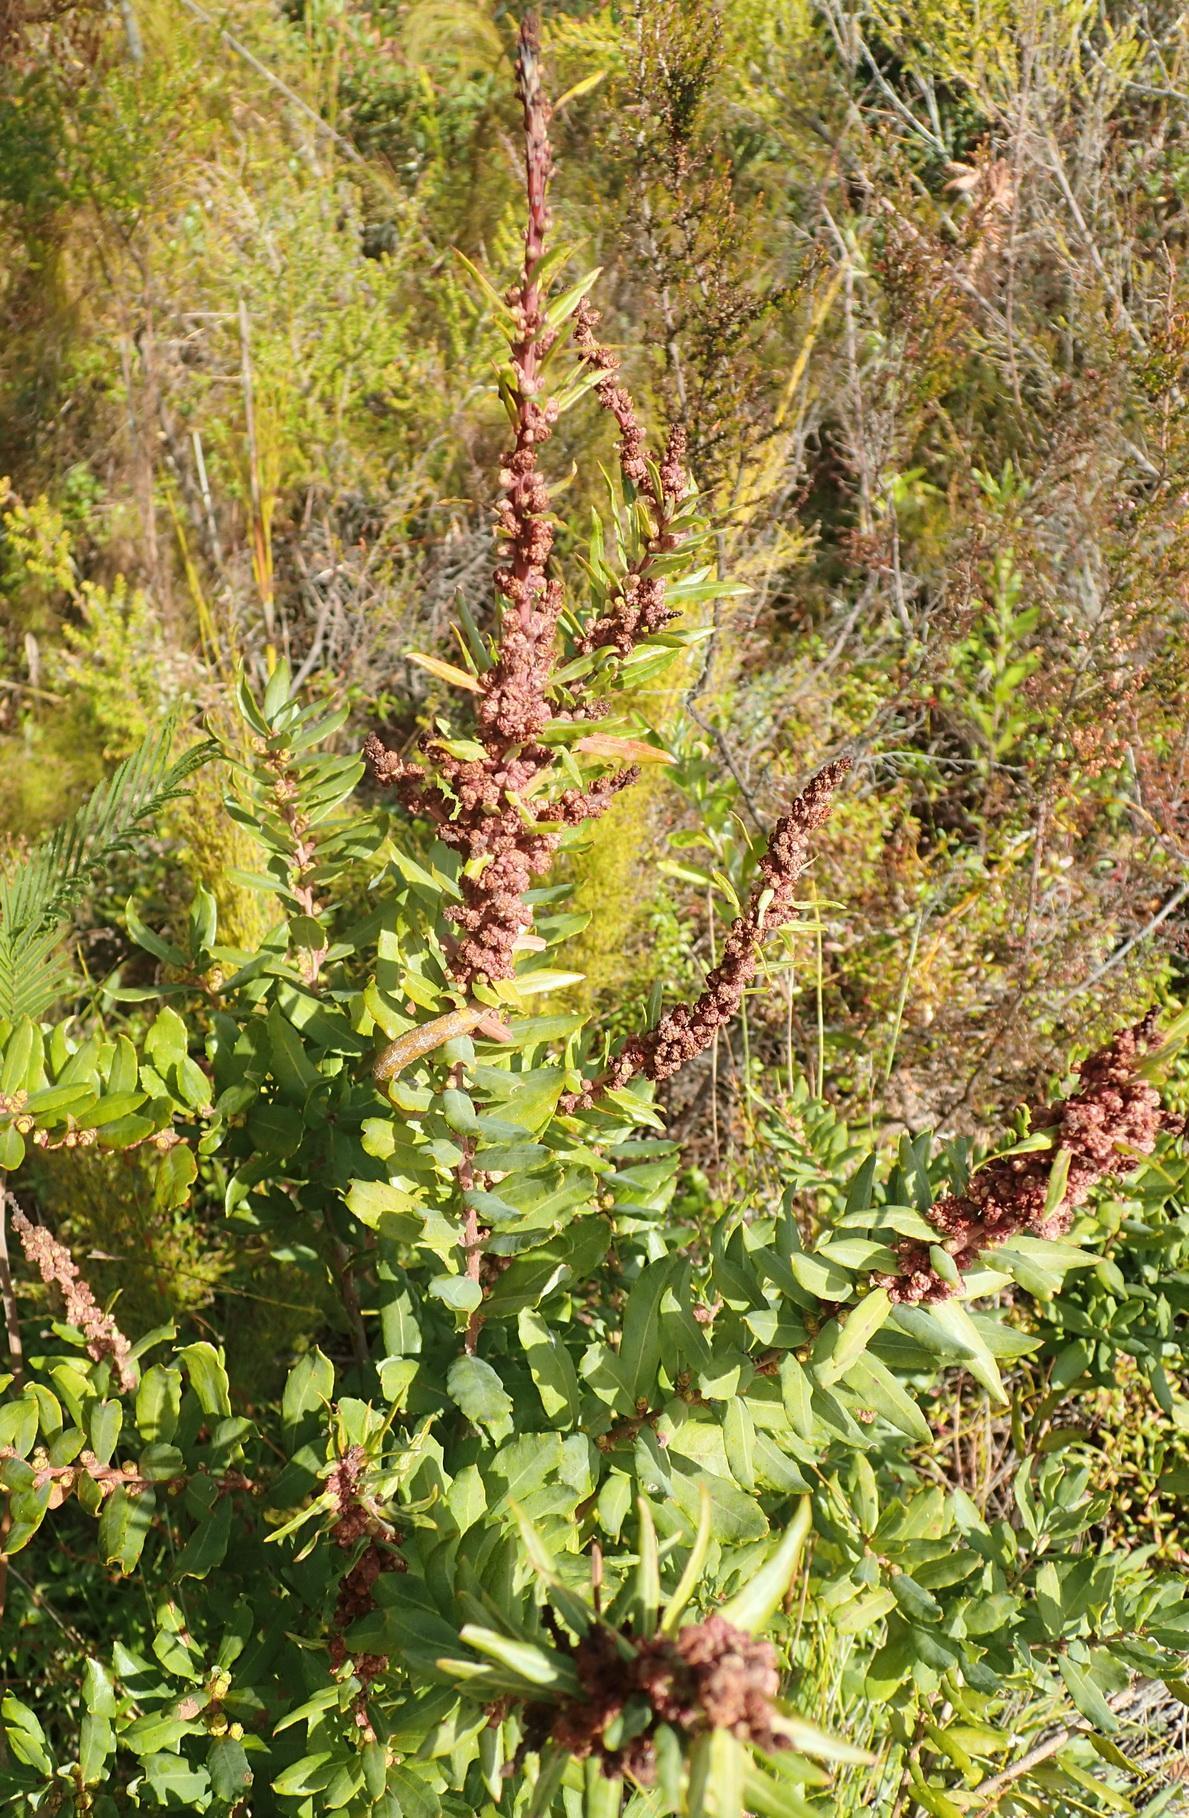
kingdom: Plantae
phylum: Tracheophyta
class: Magnoliopsida
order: Fagales
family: Myricaceae
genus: Morella
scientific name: Morella humilis
